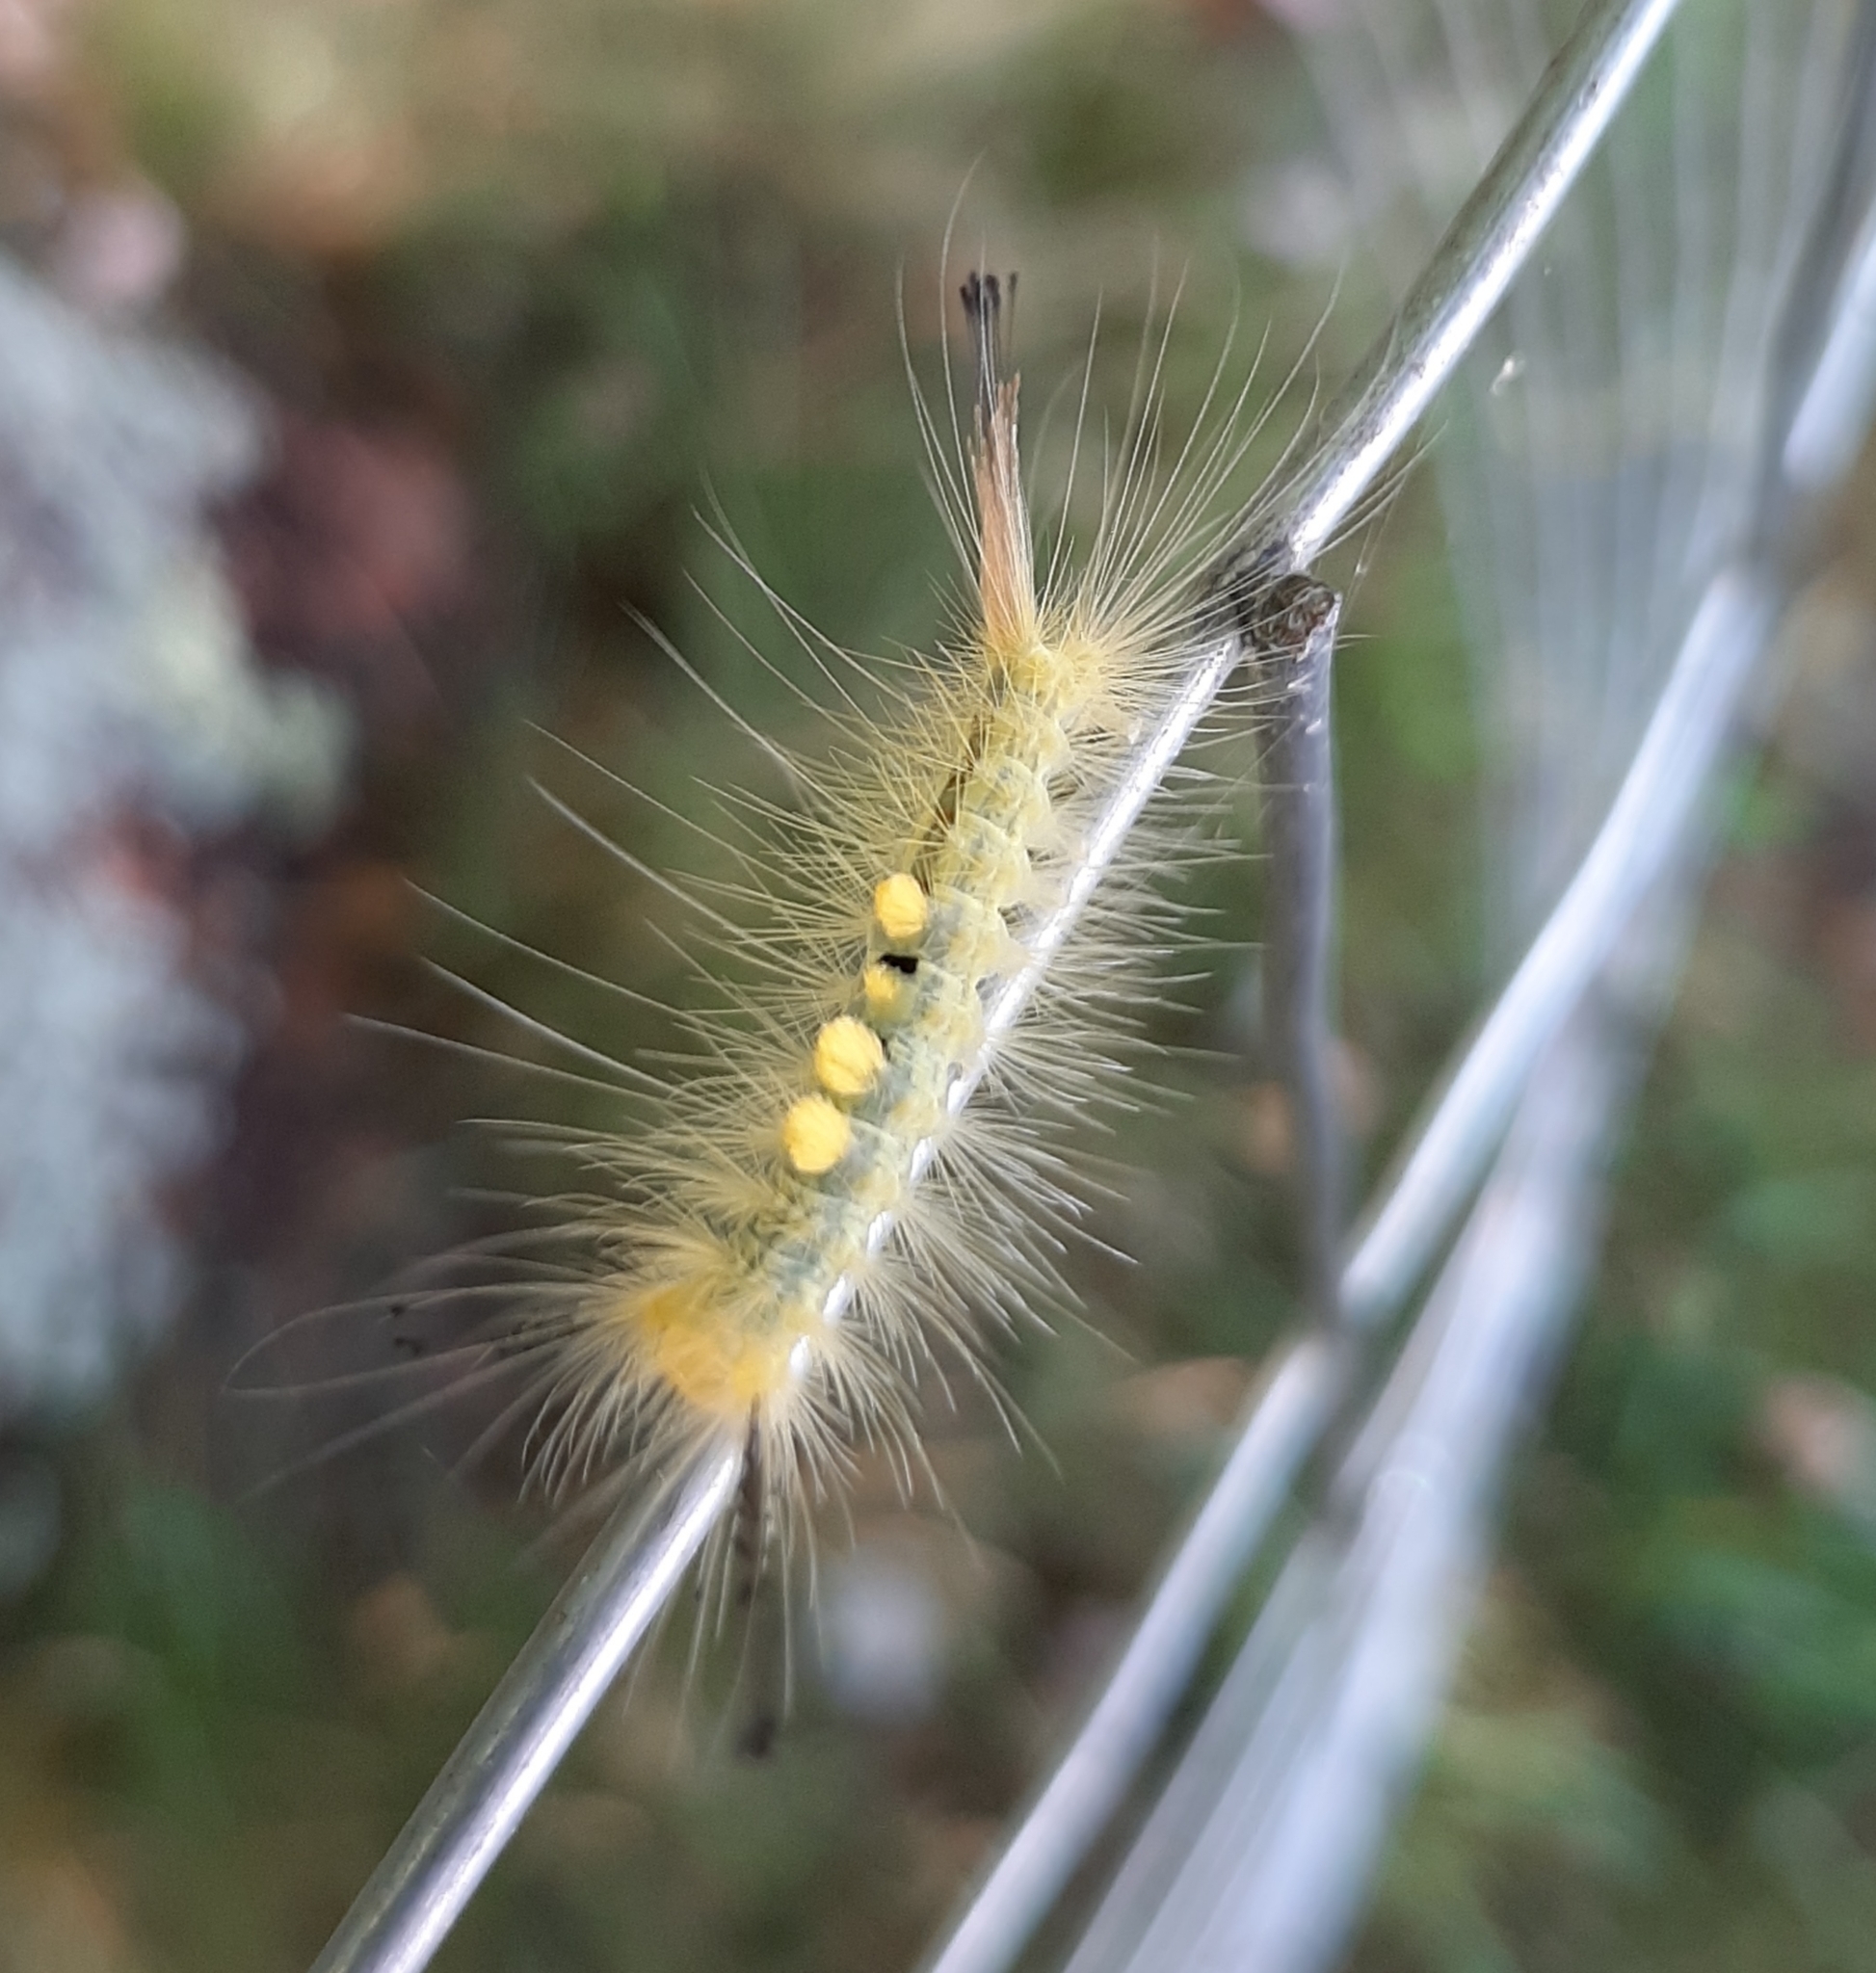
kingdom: Animalia
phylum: Arthropoda
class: Insecta
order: Lepidoptera
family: Erebidae
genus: Orgyia
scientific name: Orgyia definita
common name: Definite tussock moth
